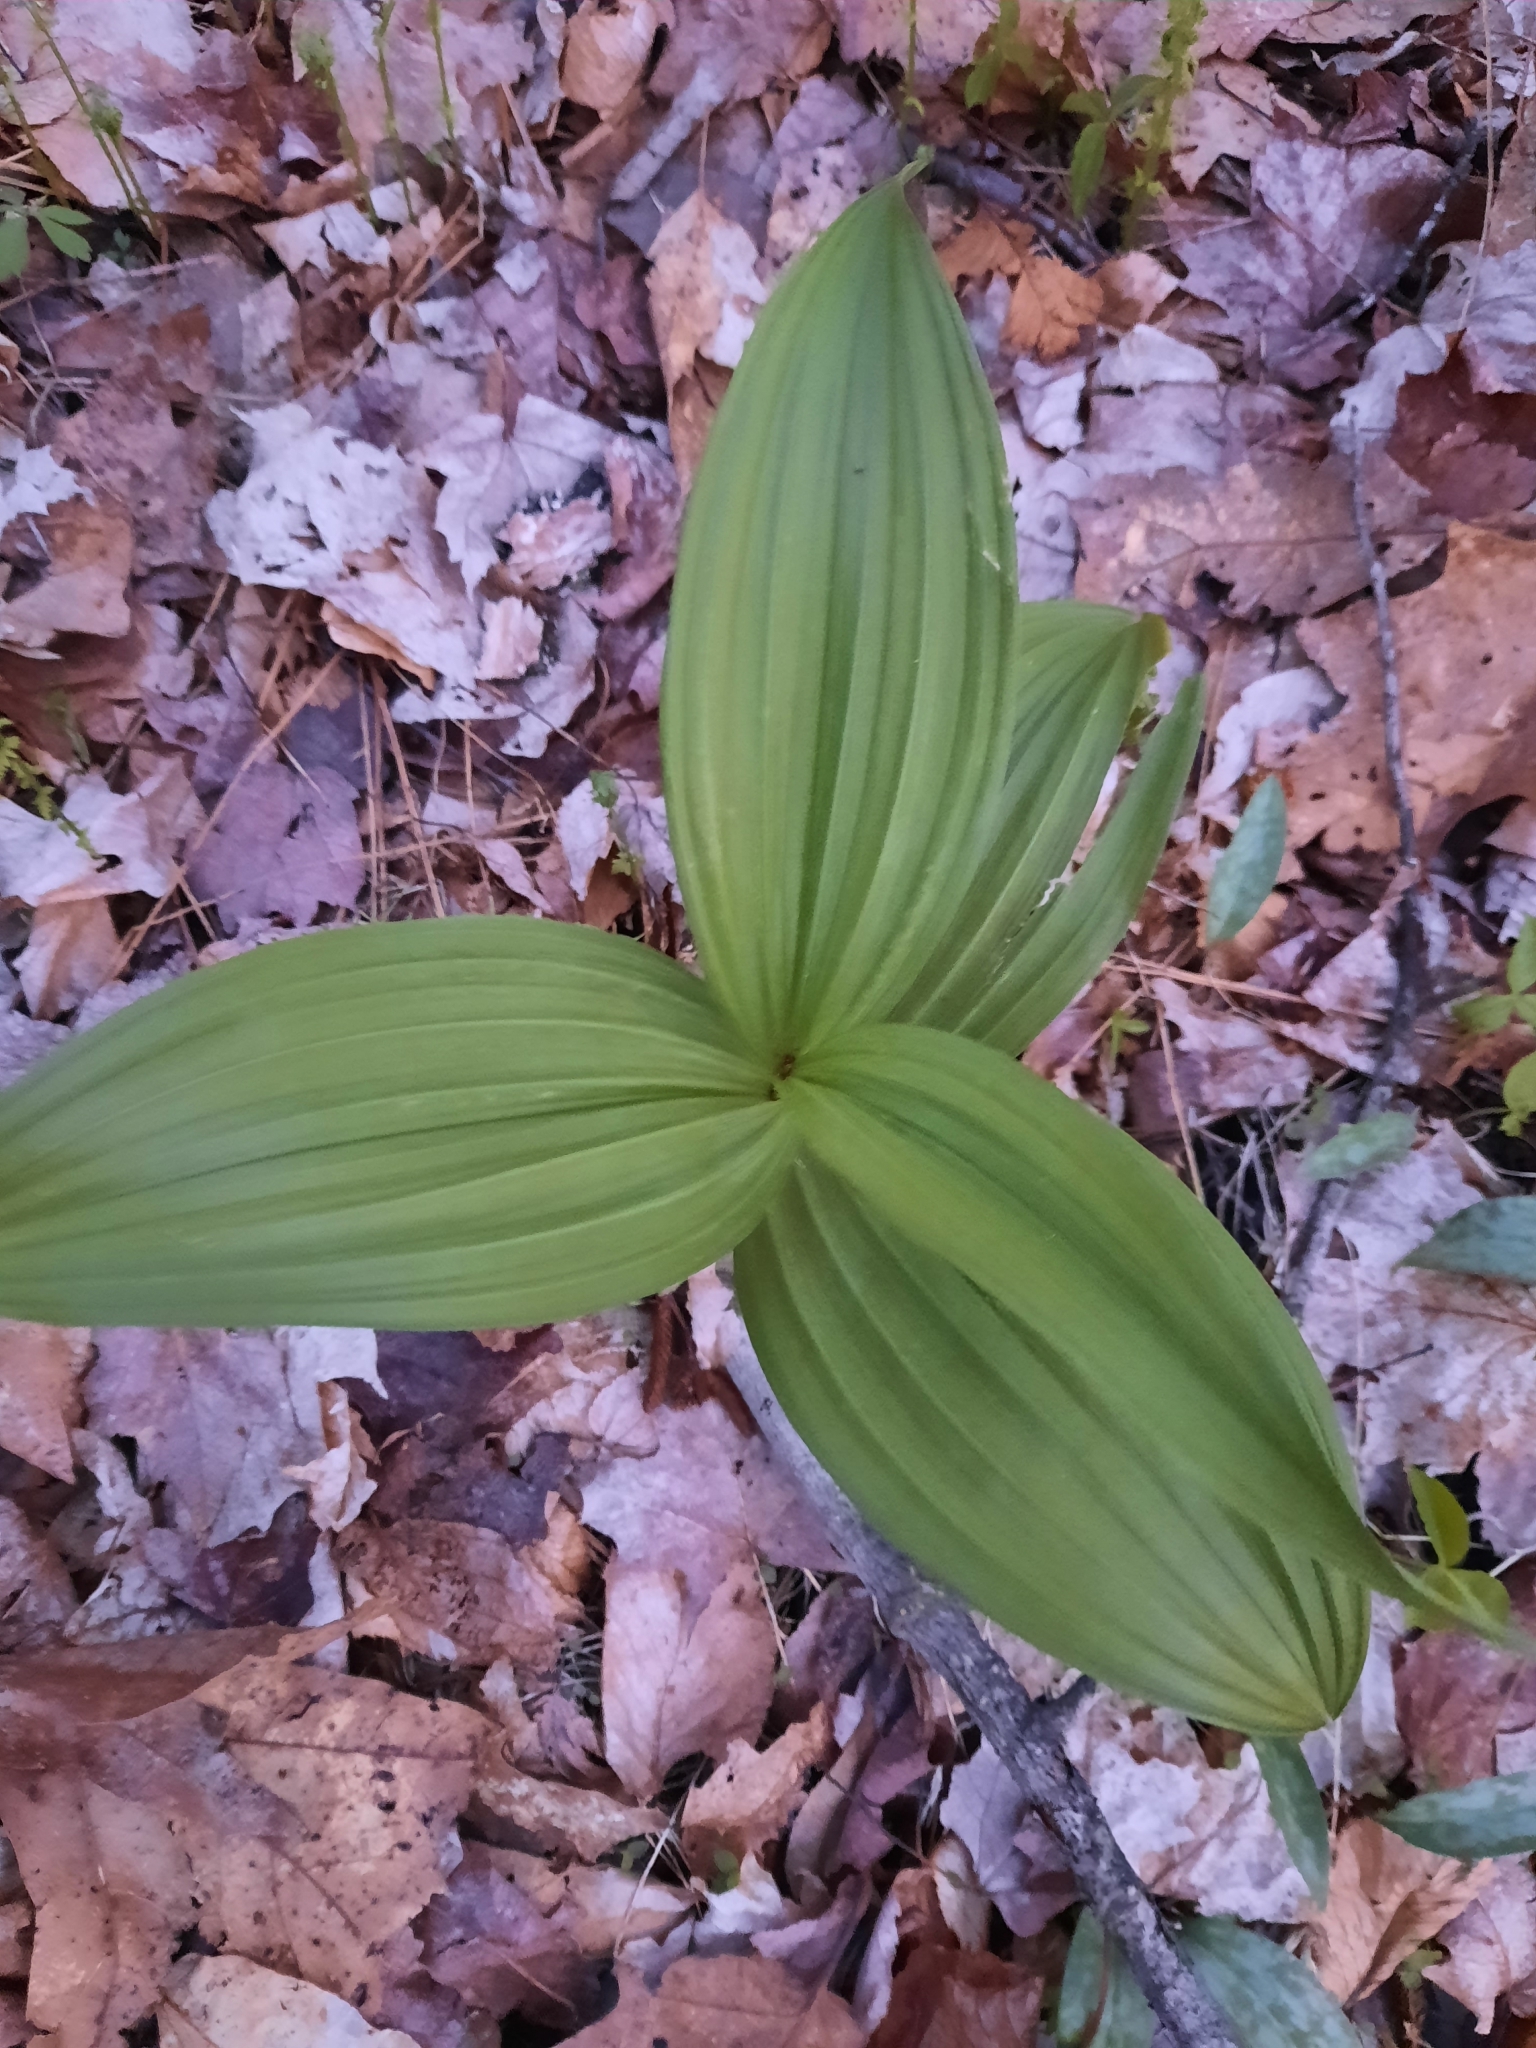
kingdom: Plantae
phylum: Tracheophyta
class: Liliopsida
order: Liliales
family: Melanthiaceae
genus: Veratrum
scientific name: Veratrum viride
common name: American false hellebore
